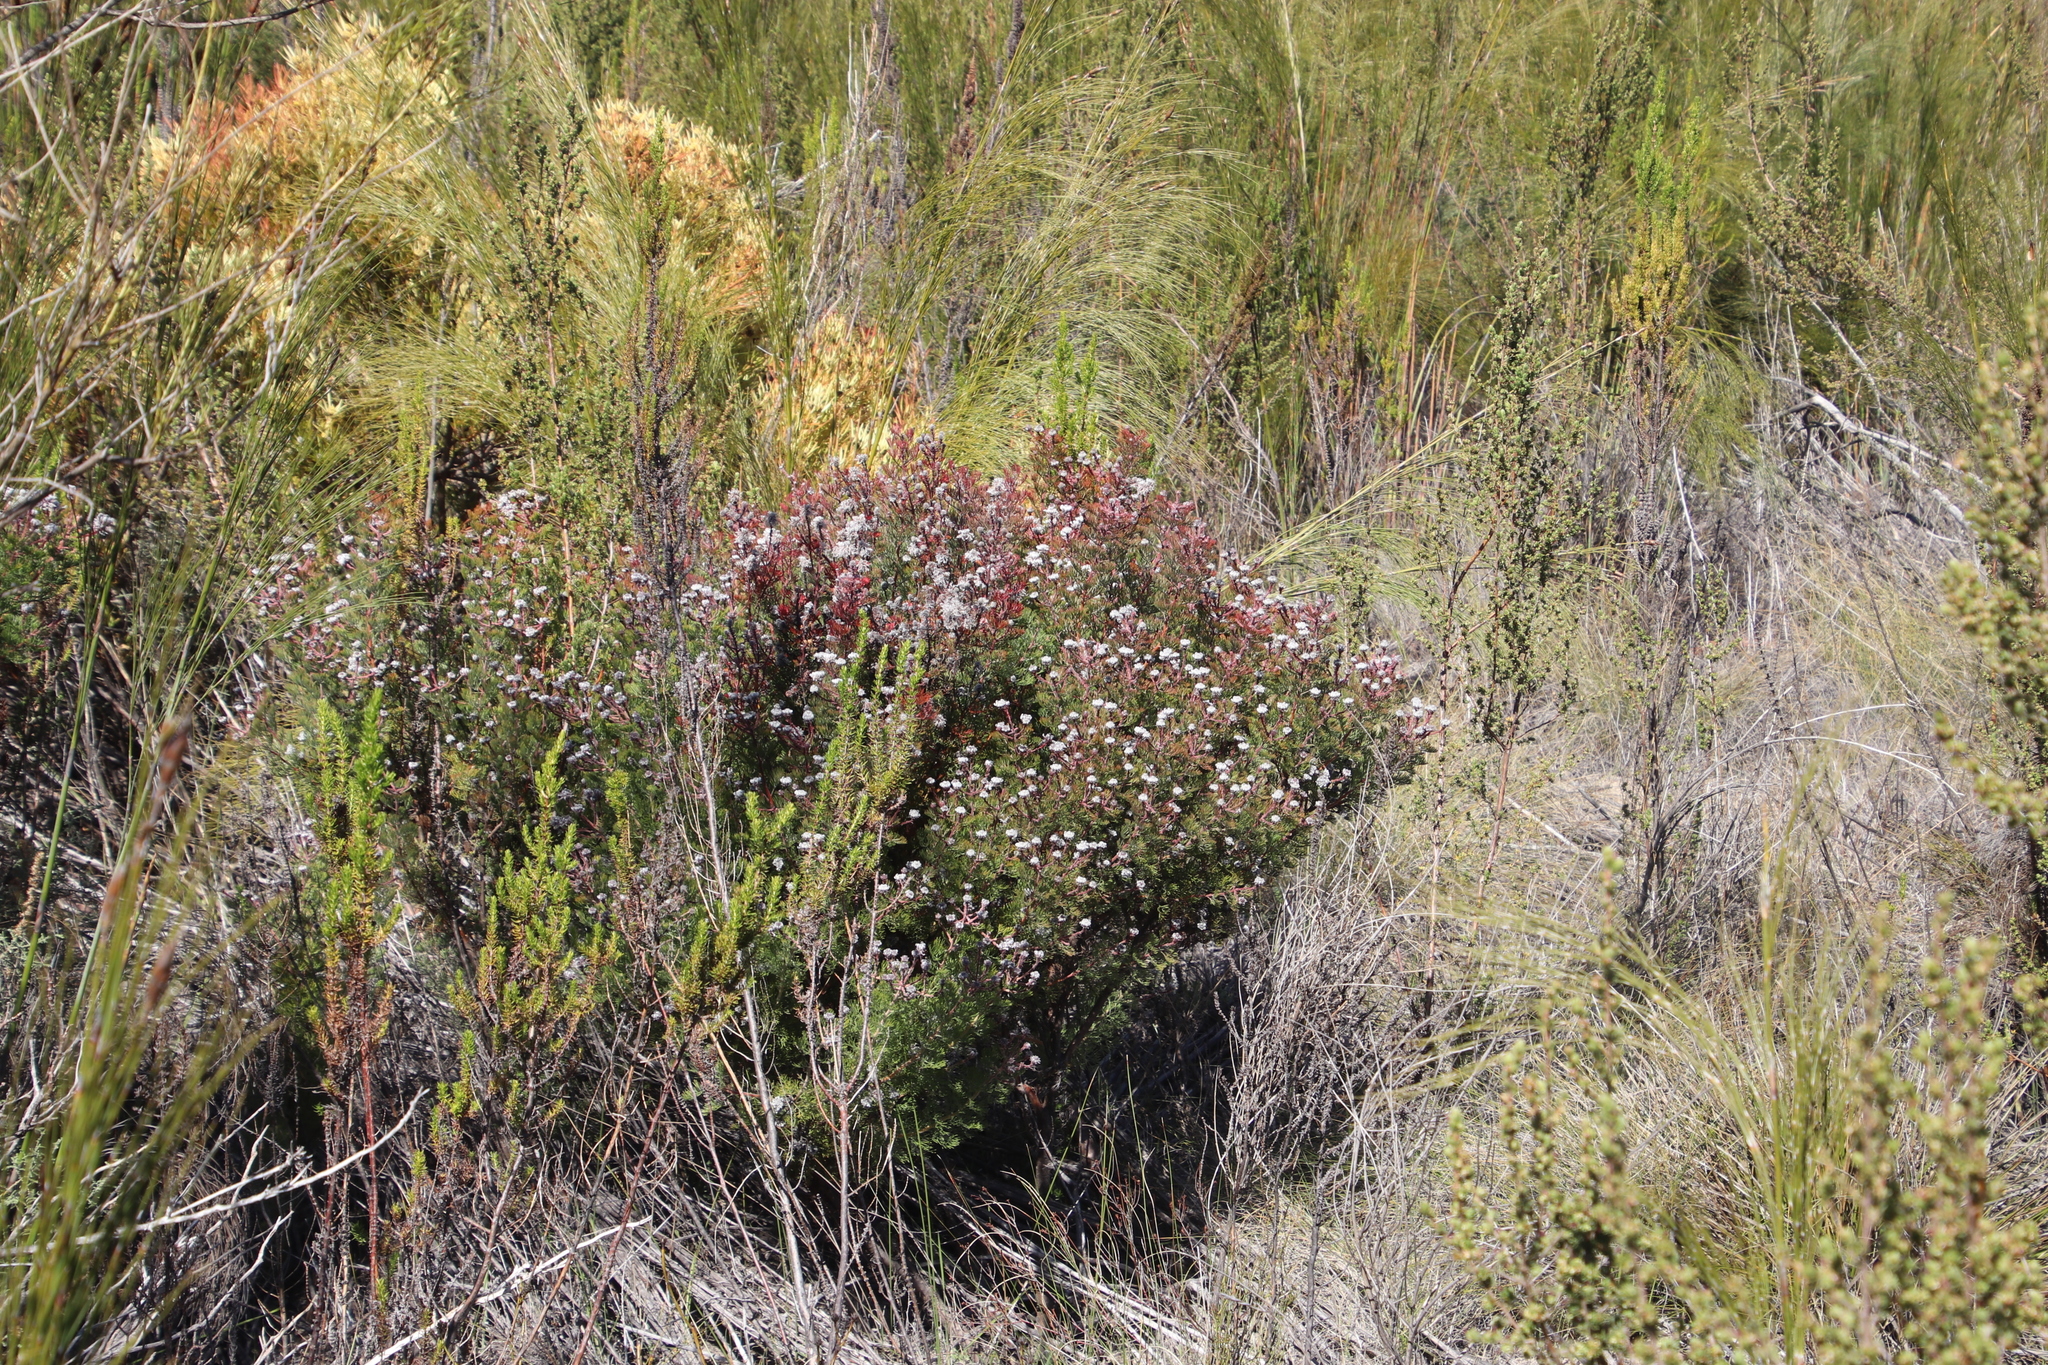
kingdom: Plantae
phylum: Tracheophyta
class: Magnoliopsida
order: Proteales
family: Proteaceae
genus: Serruria
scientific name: Serruria aitonii
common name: Marshmallow spiderhead
